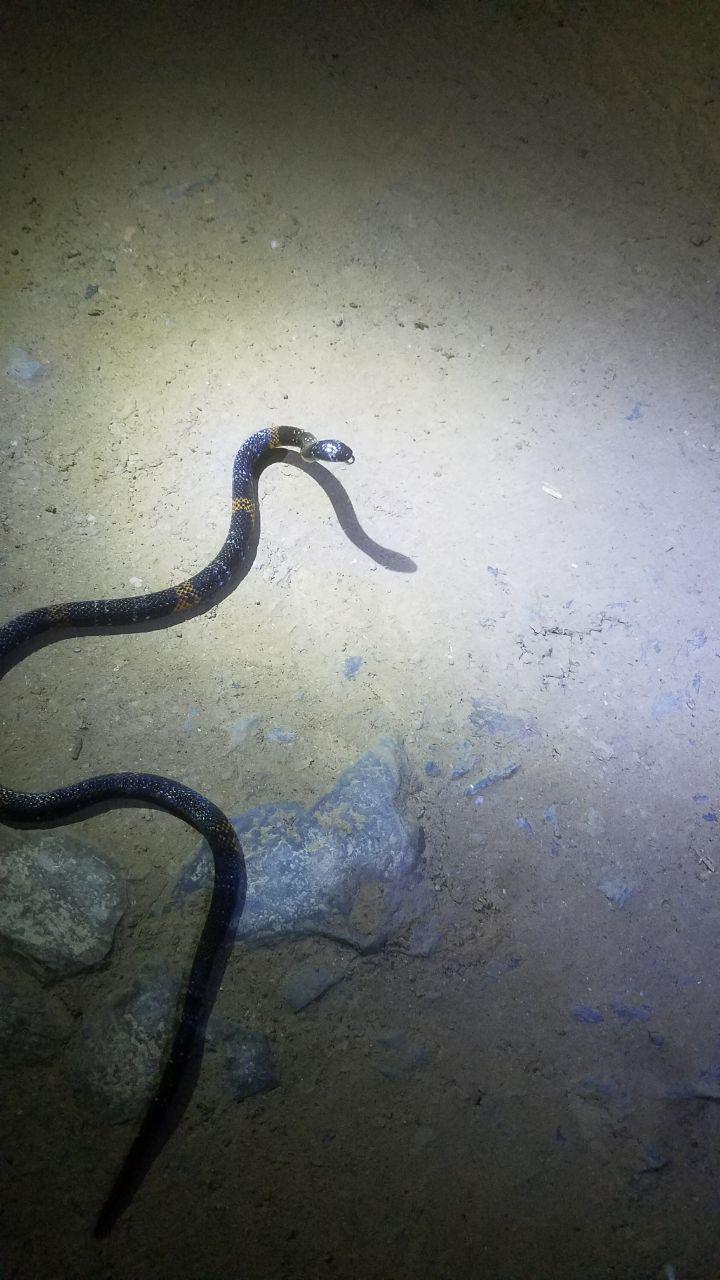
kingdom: Animalia
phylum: Chordata
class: Squamata
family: Elapidae
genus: Micrurus
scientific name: Micrurus elegans
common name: Elegant coral snake
